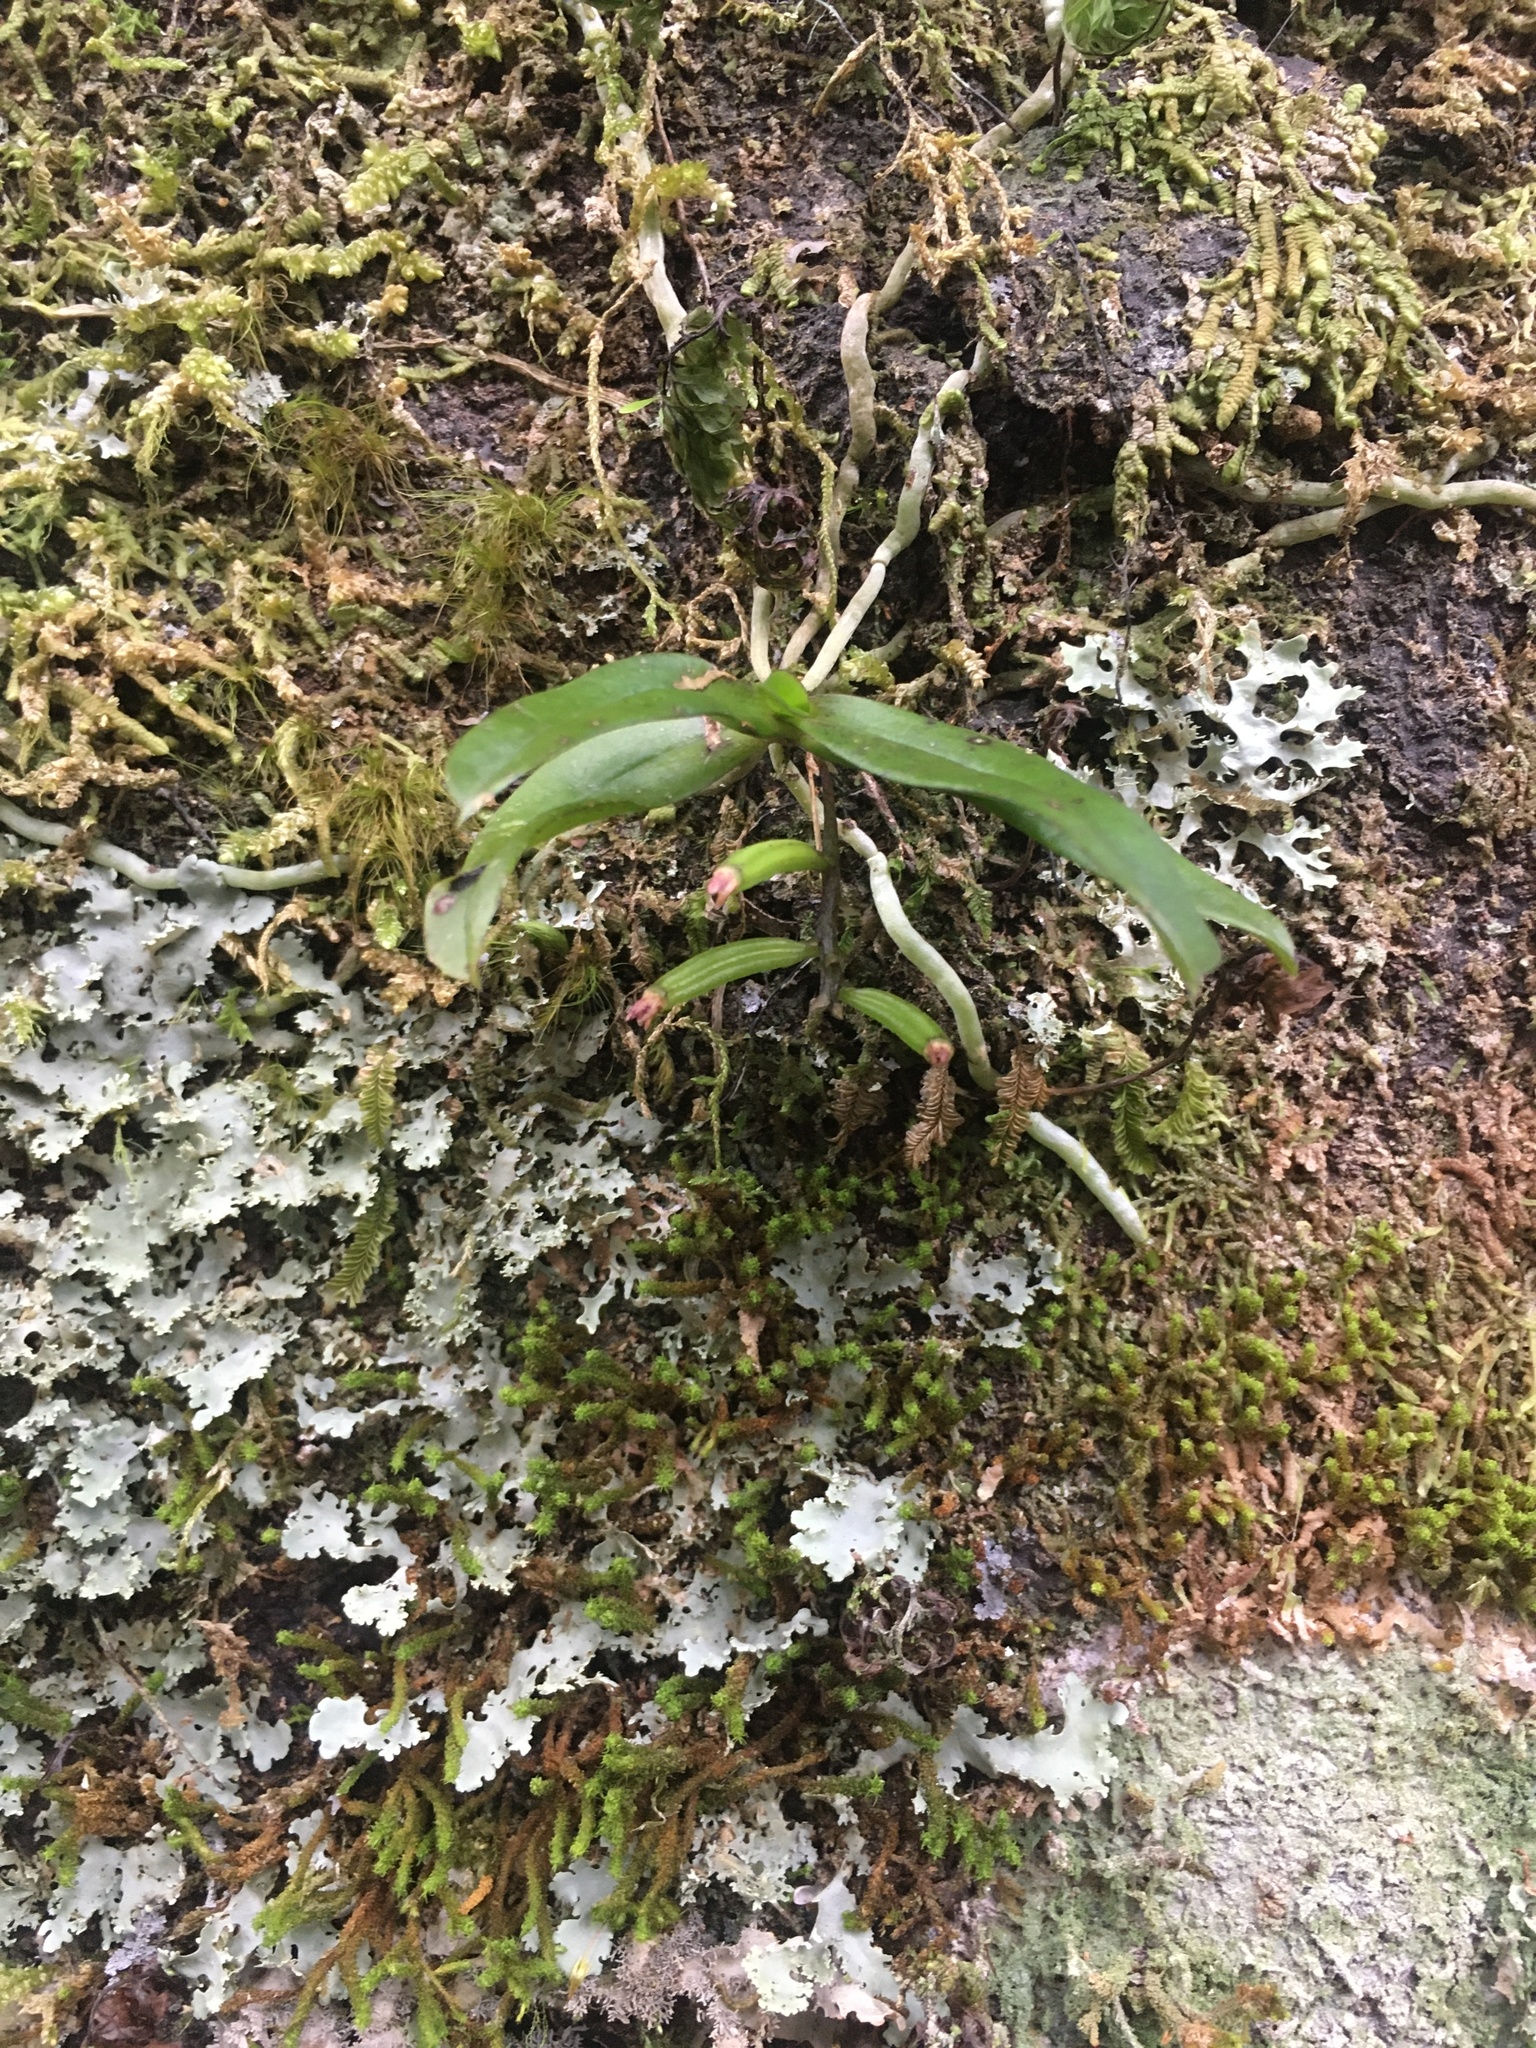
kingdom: Plantae
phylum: Tracheophyta
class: Liliopsida
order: Asparagales
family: Orchidaceae
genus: Drymoanthus
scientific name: Drymoanthus adversus
